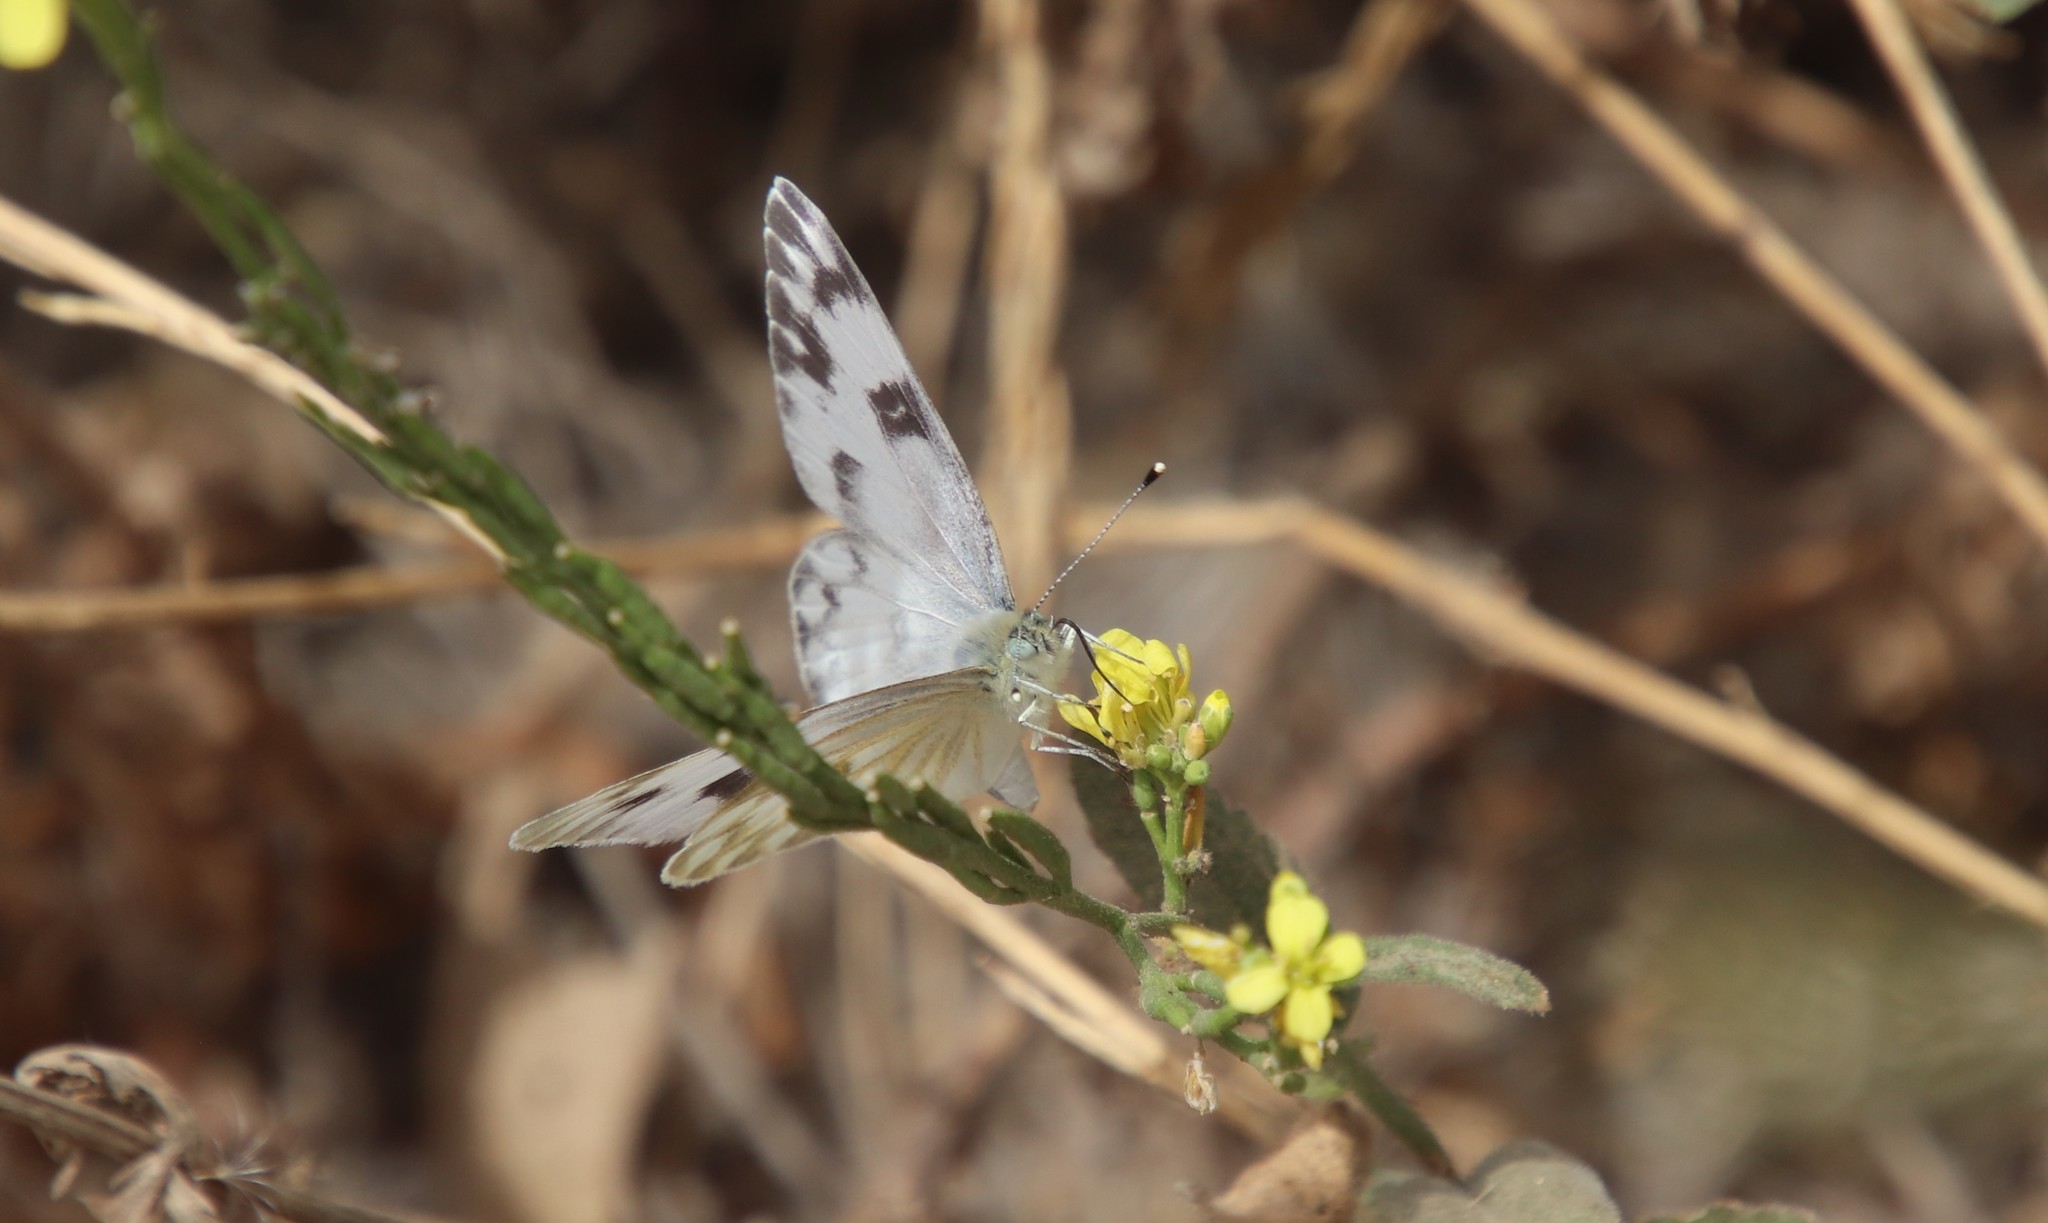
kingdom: Animalia
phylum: Arthropoda
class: Insecta
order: Lepidoptera
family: Pieridae
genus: Pontia
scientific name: Pontia protodice
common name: Checkered white
